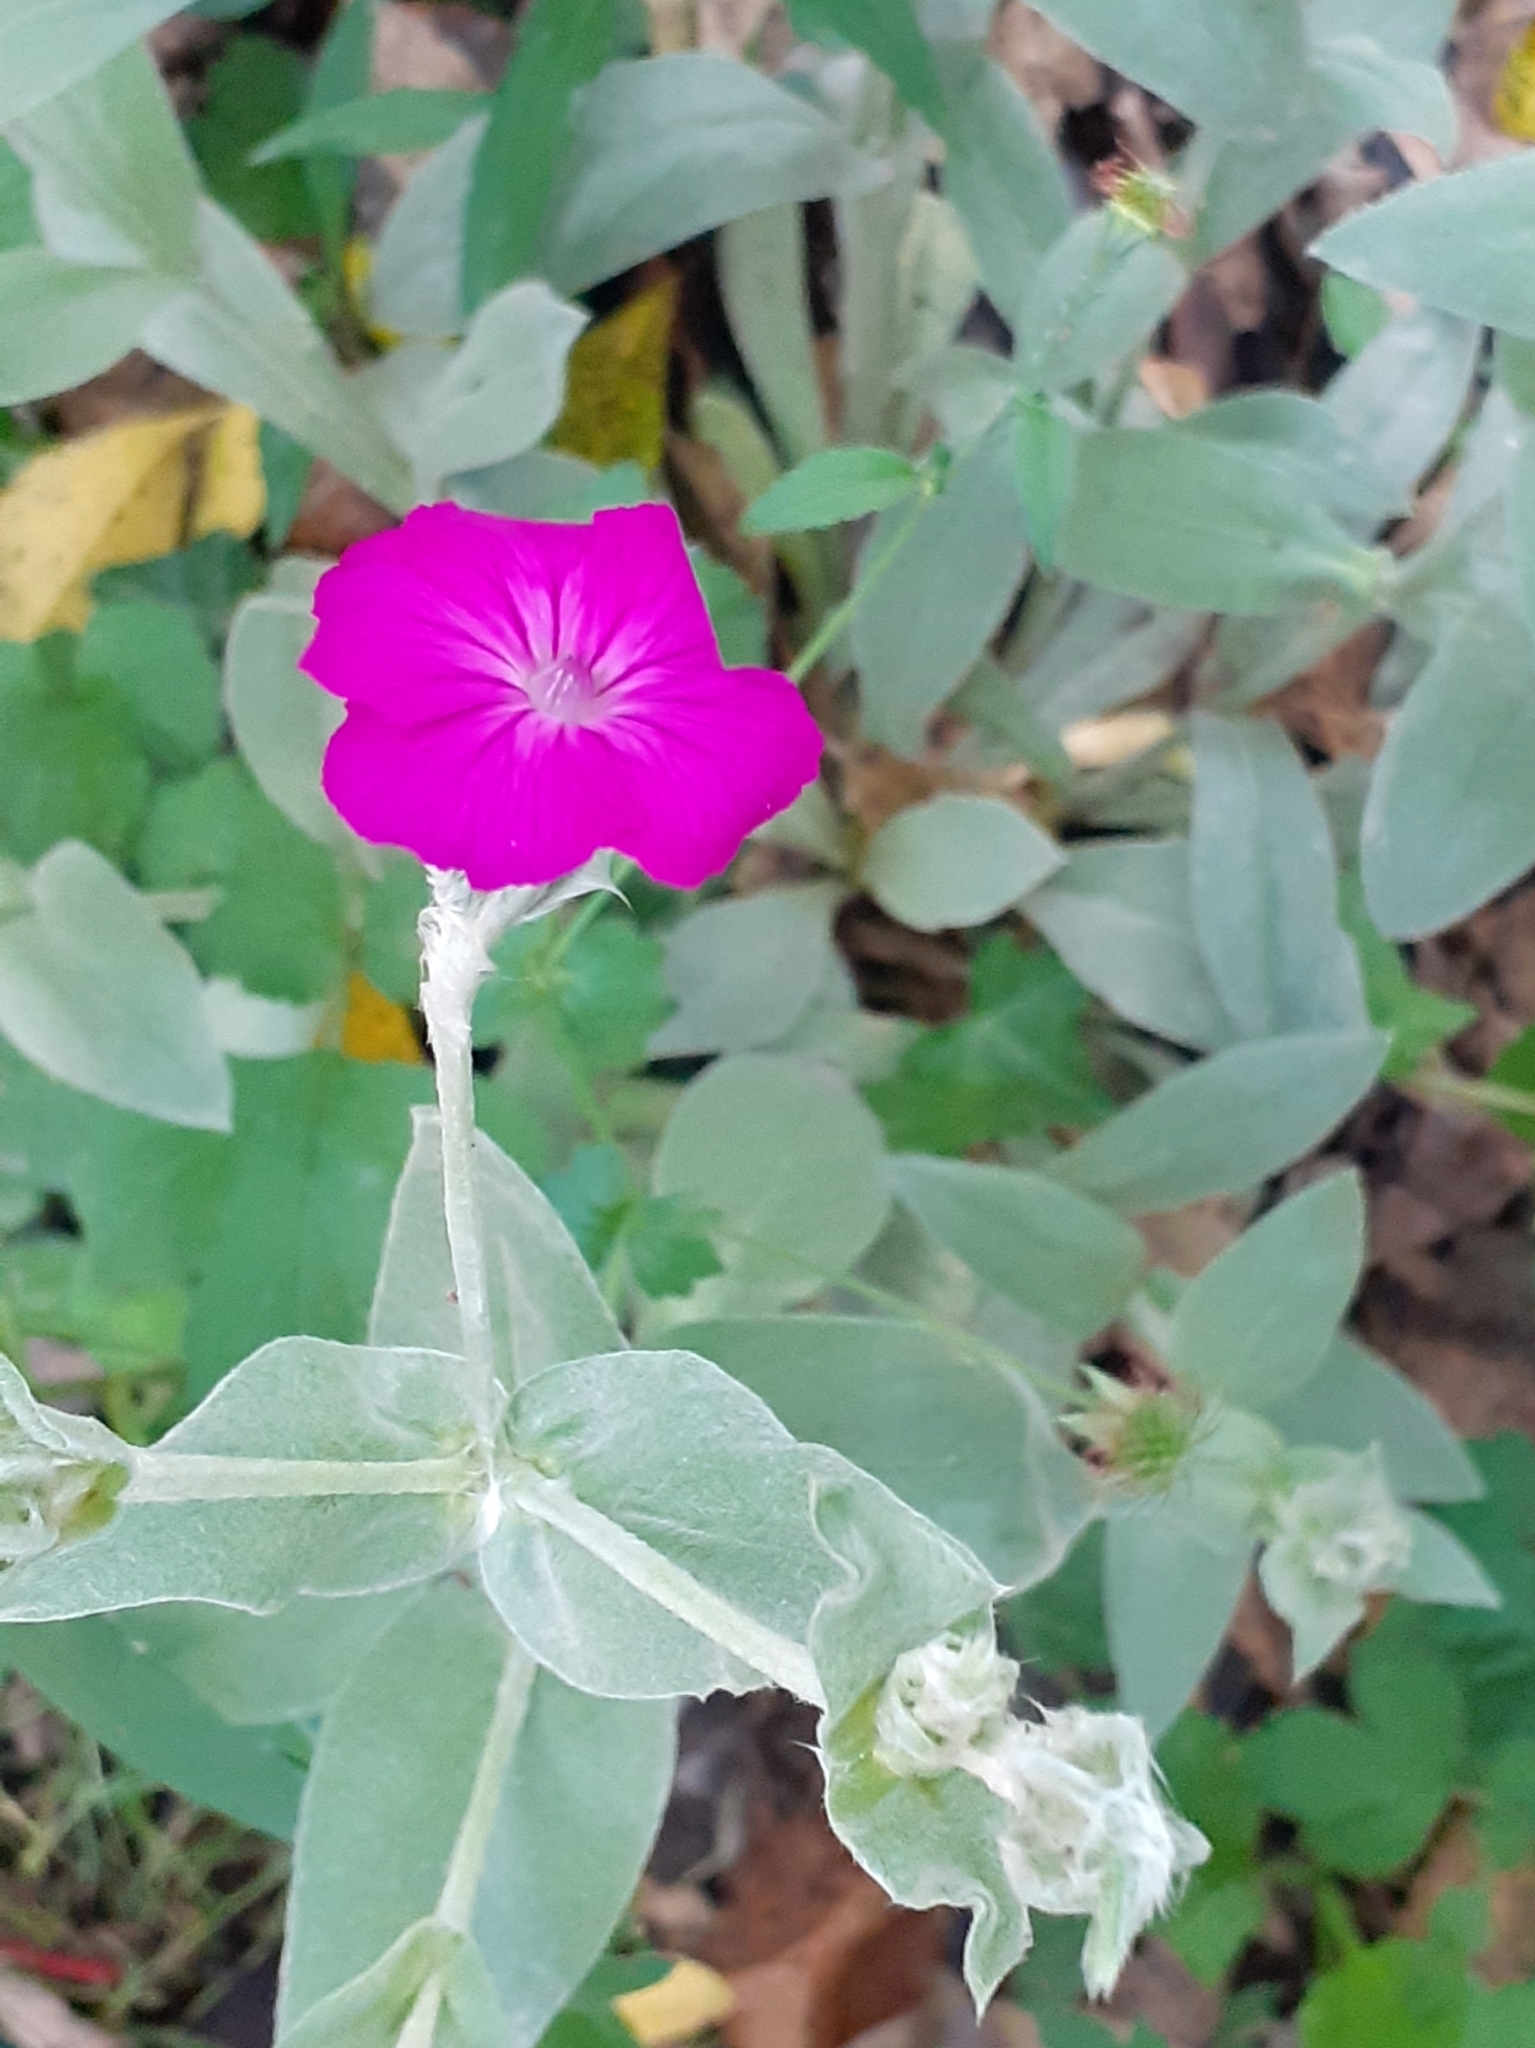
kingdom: Plantae
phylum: Tracheophyta
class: Magnoliopsida
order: Caryophyllales
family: Caryophyllaceae
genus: Silene
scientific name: Silene coronaria
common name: Rose campion
